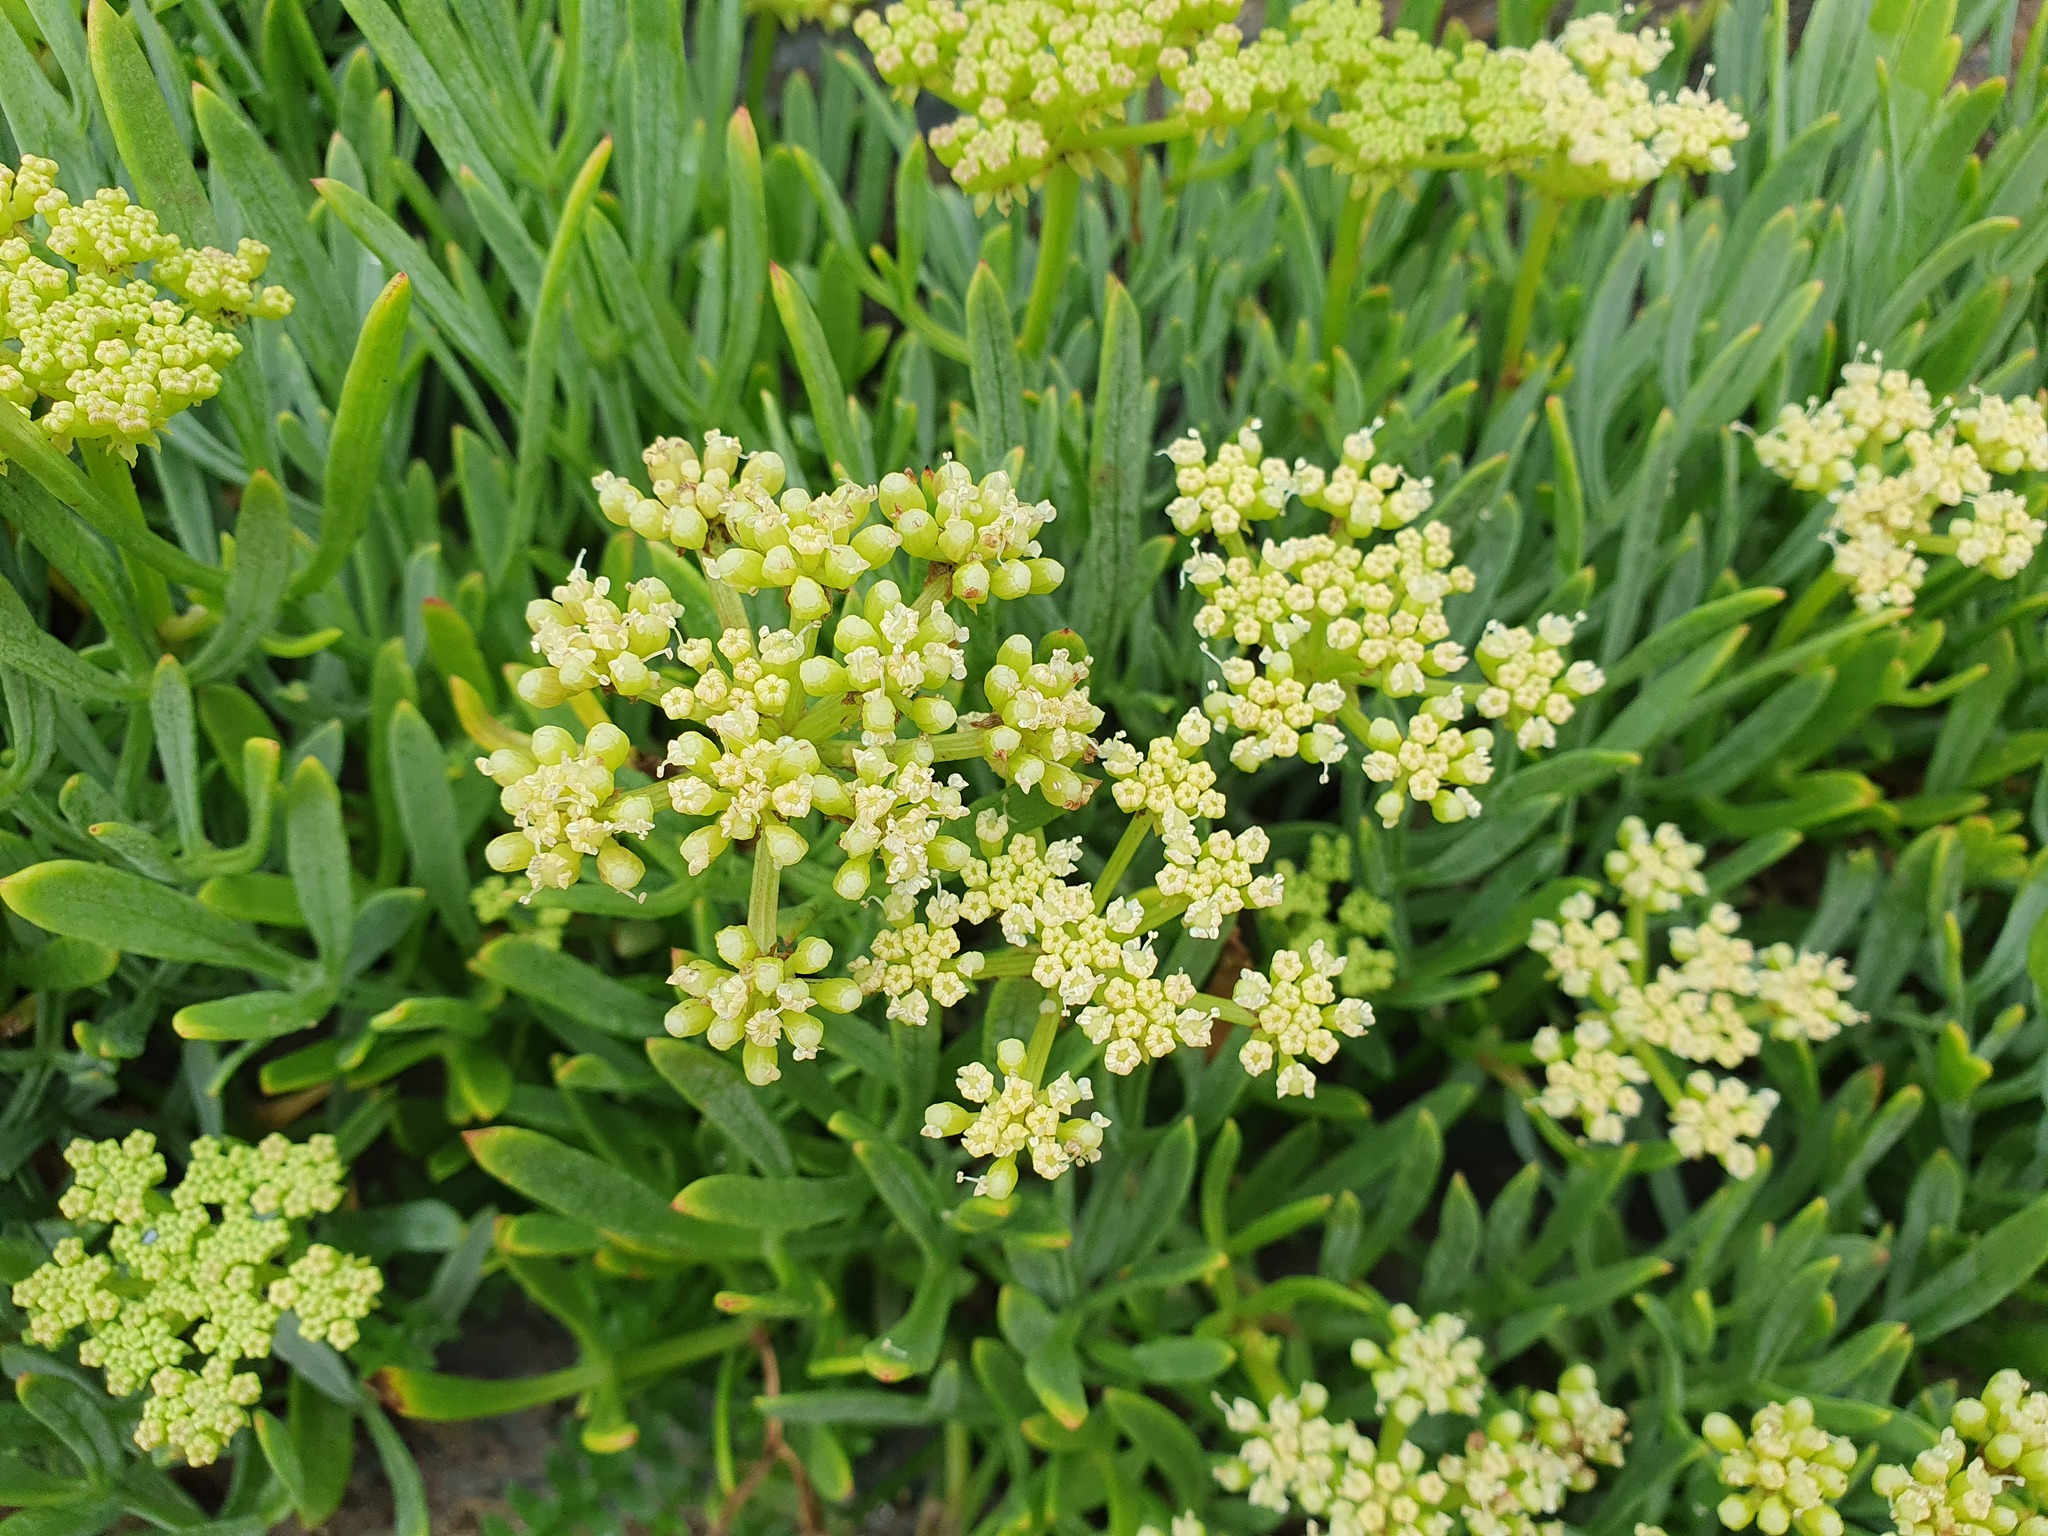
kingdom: Plantae
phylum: Tracheophyta
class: Magnoliopsida
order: Apiales
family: Apiaceae
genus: Crithmum
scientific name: Crithmum maritimum
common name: Rock samphire
